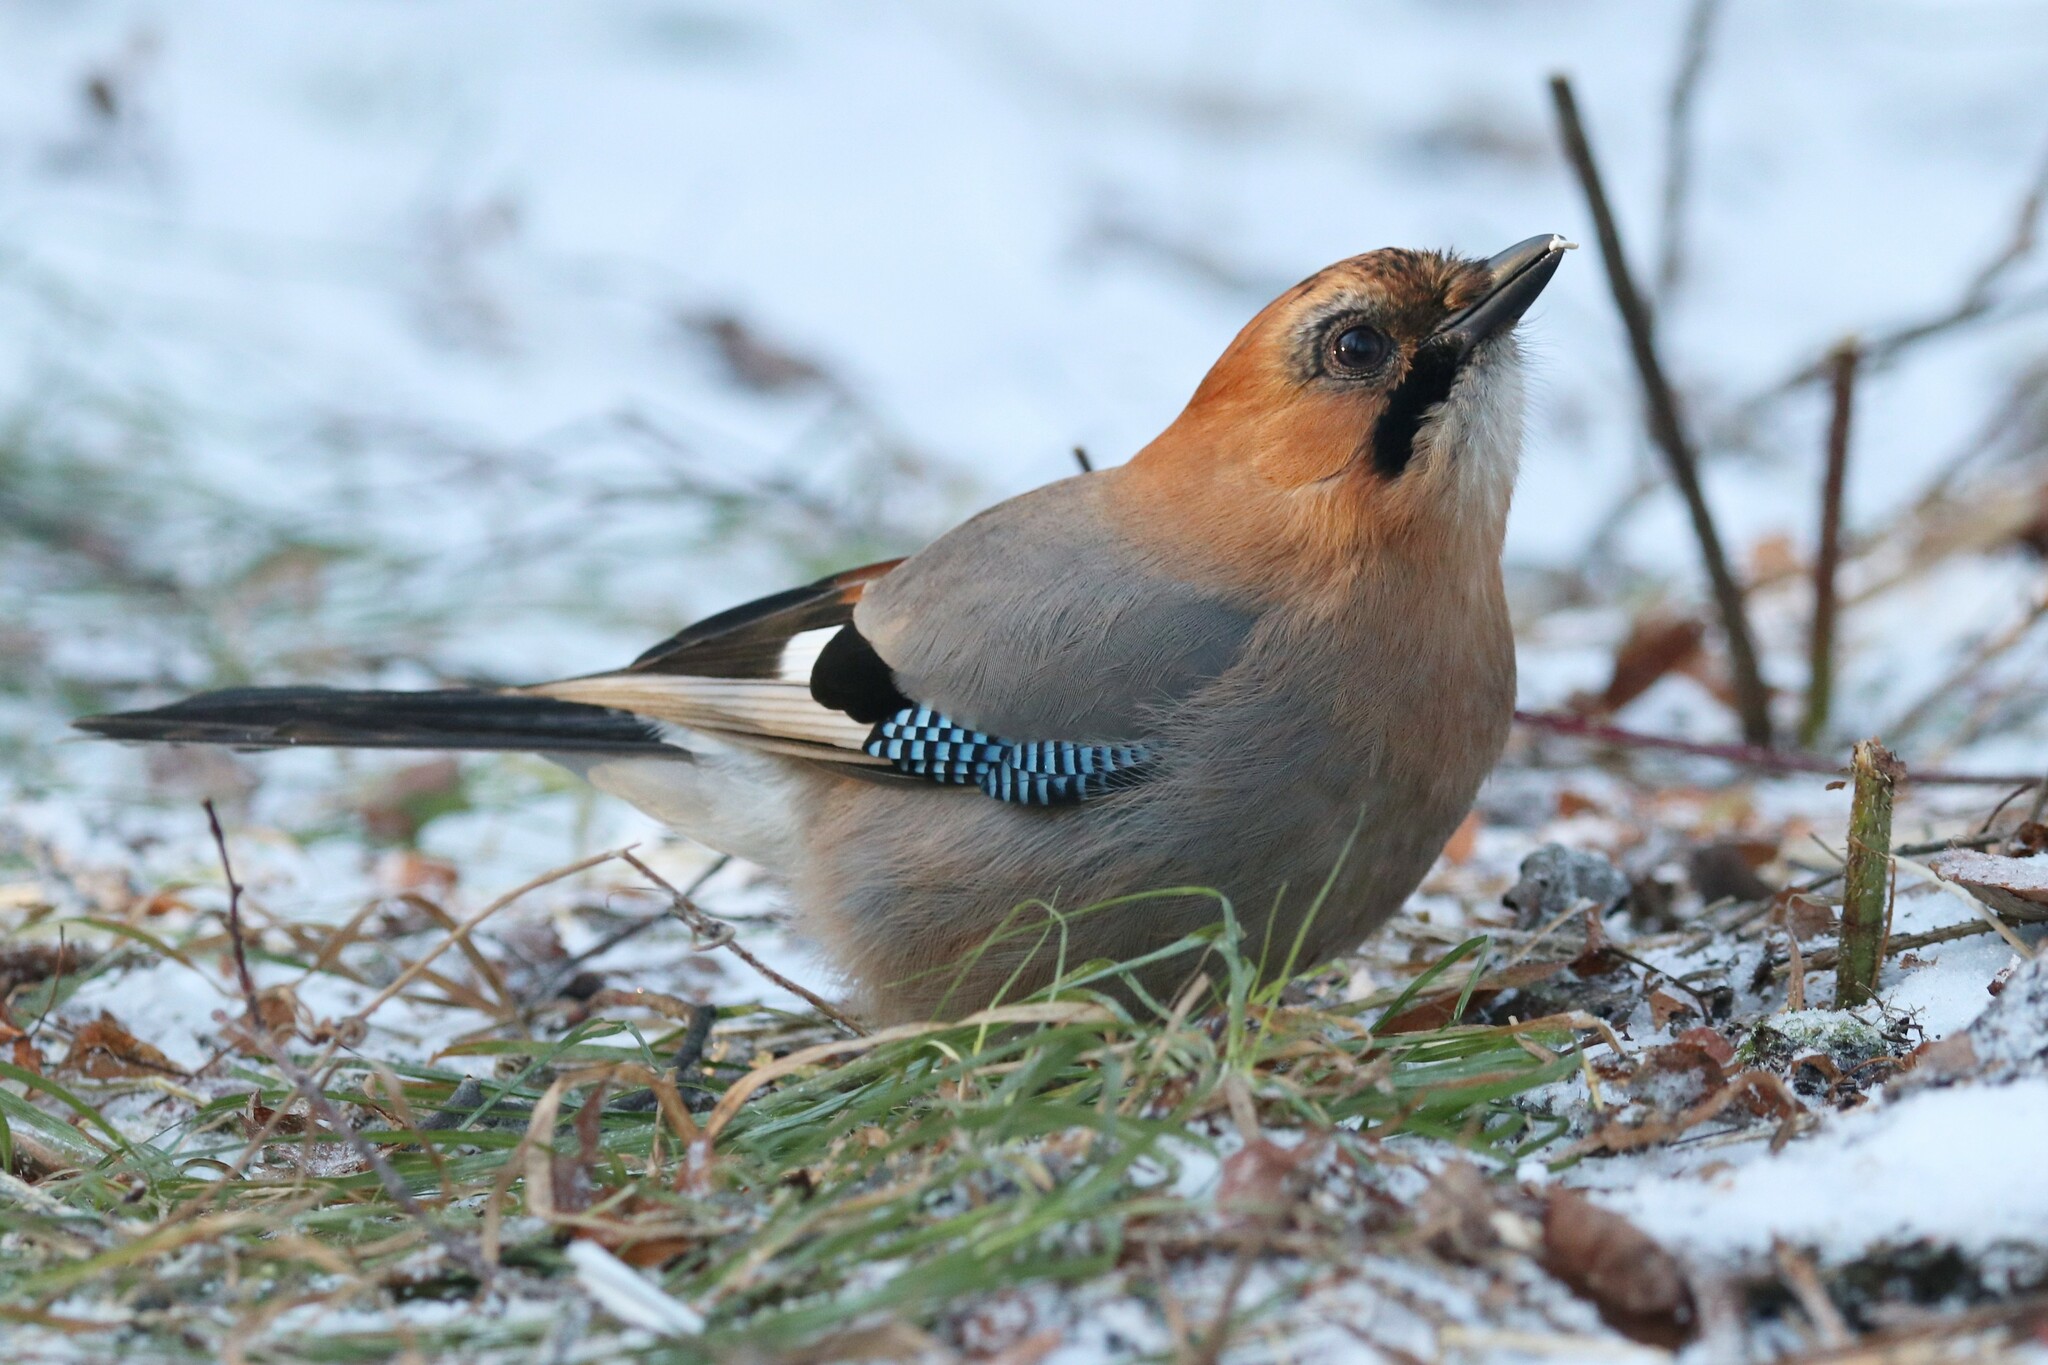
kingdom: Animalia
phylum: Chordata
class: Aves
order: Passeriformes
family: Corvidae
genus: Garrulus
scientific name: Garrulus glandarius
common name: Eurasian jay
